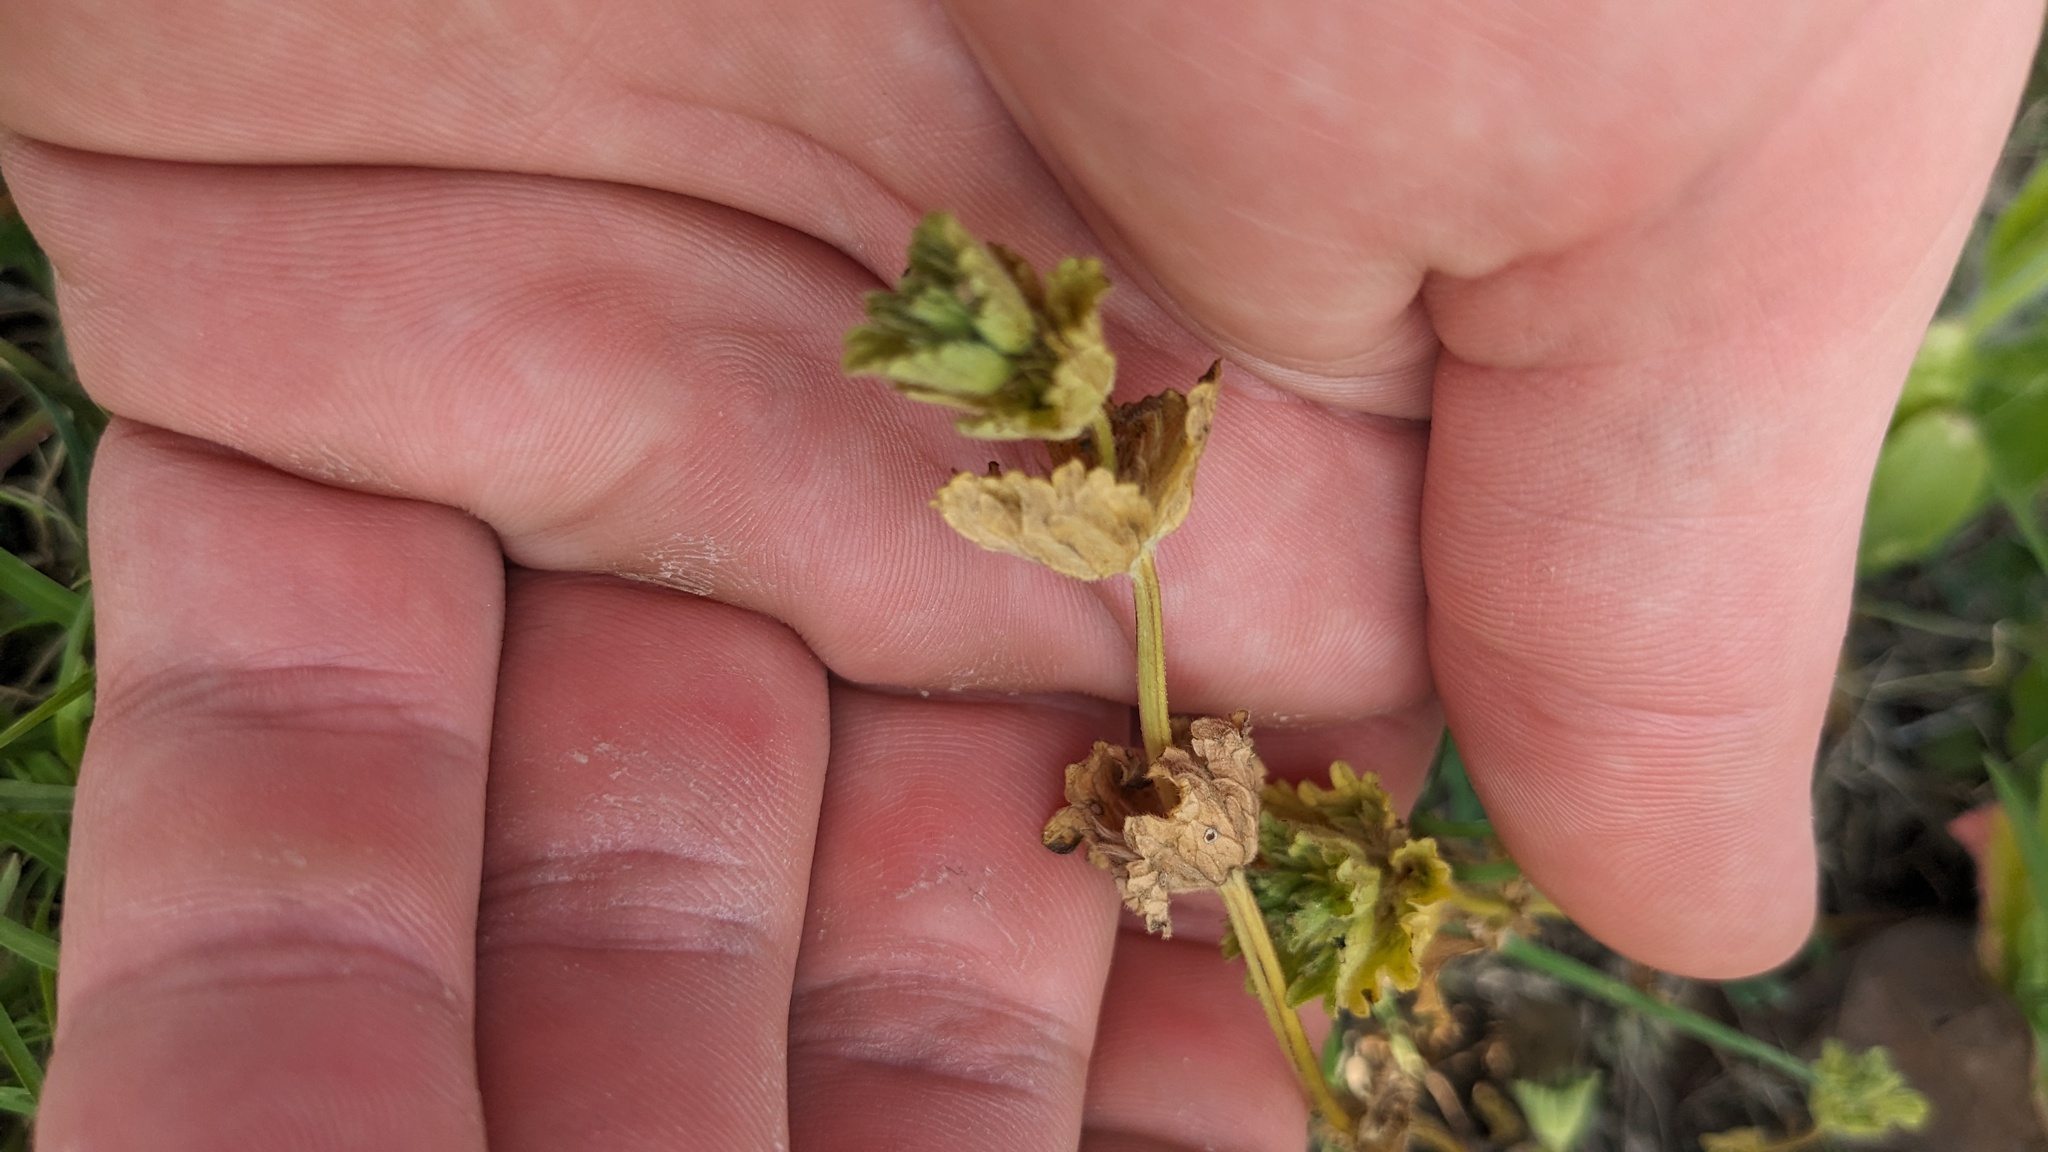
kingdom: Plantae
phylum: Tracheophyta
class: Magnoliopsida
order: Lamiales
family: Lamiaceae
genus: Lamium
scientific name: Lamium amplexicaule
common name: Henbit dead-nettle
